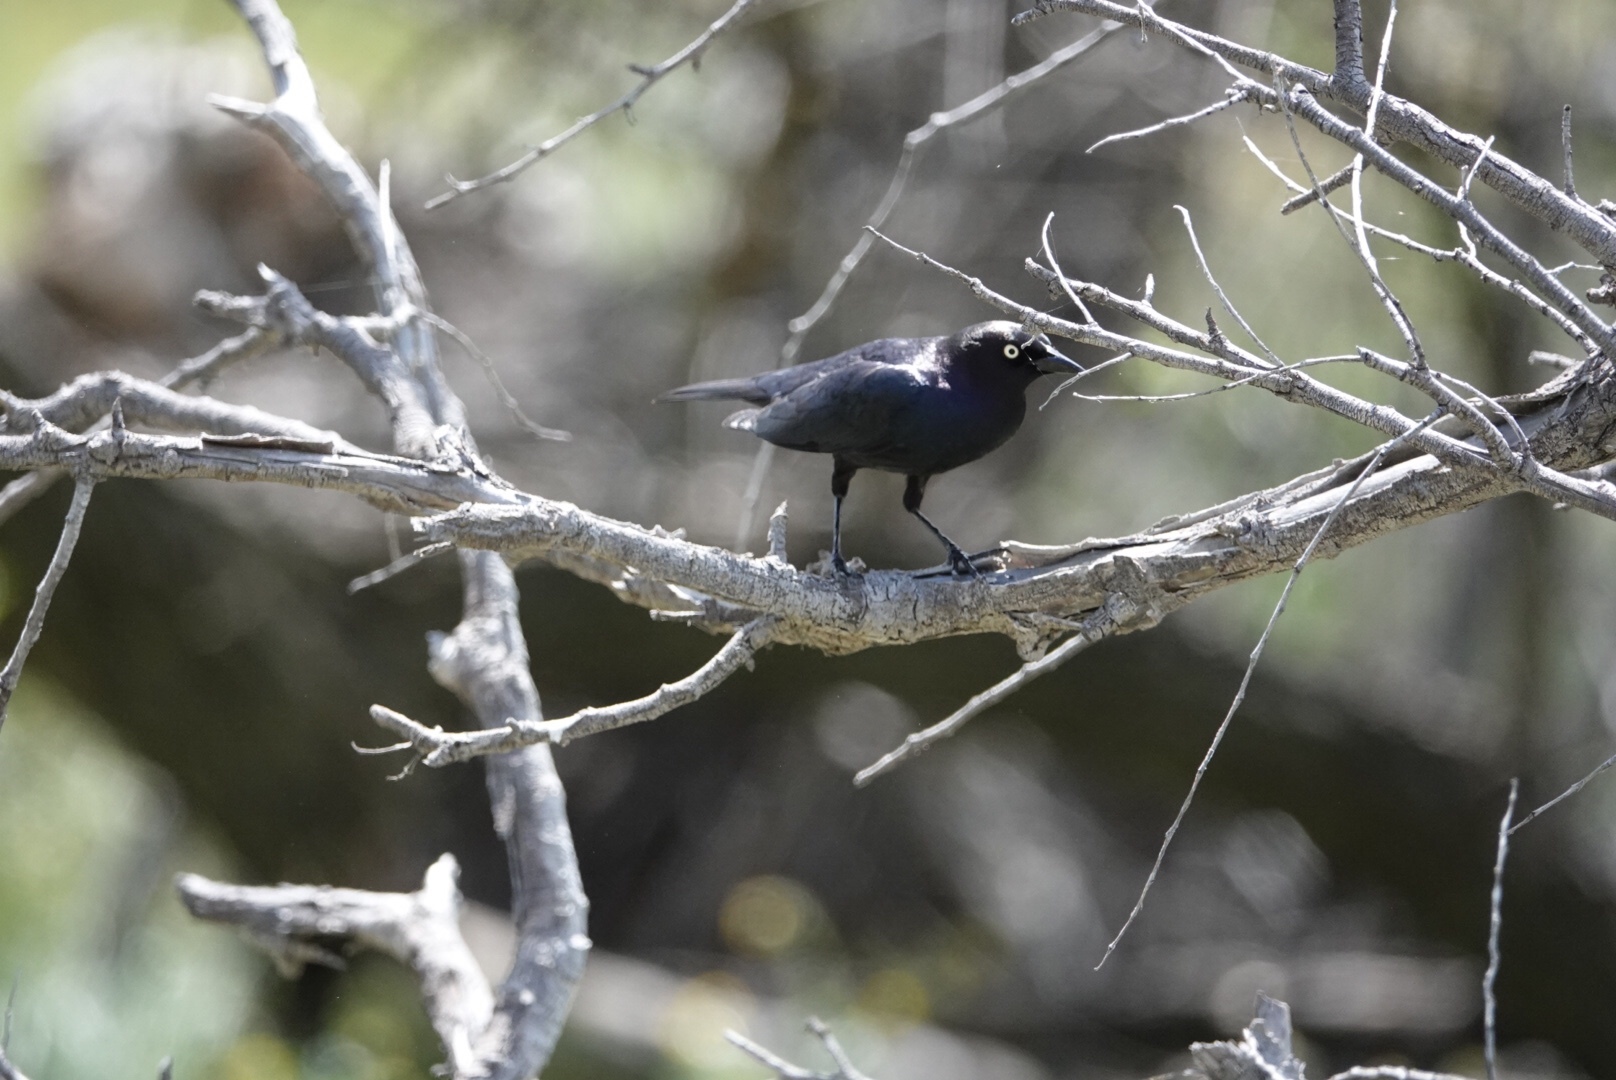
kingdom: Animalia
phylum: Chordata
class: Aves
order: Passeriformes
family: Icteridae
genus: Euphagus
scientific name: Euphagus cyanocephalus
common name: Brewer's blackbird
